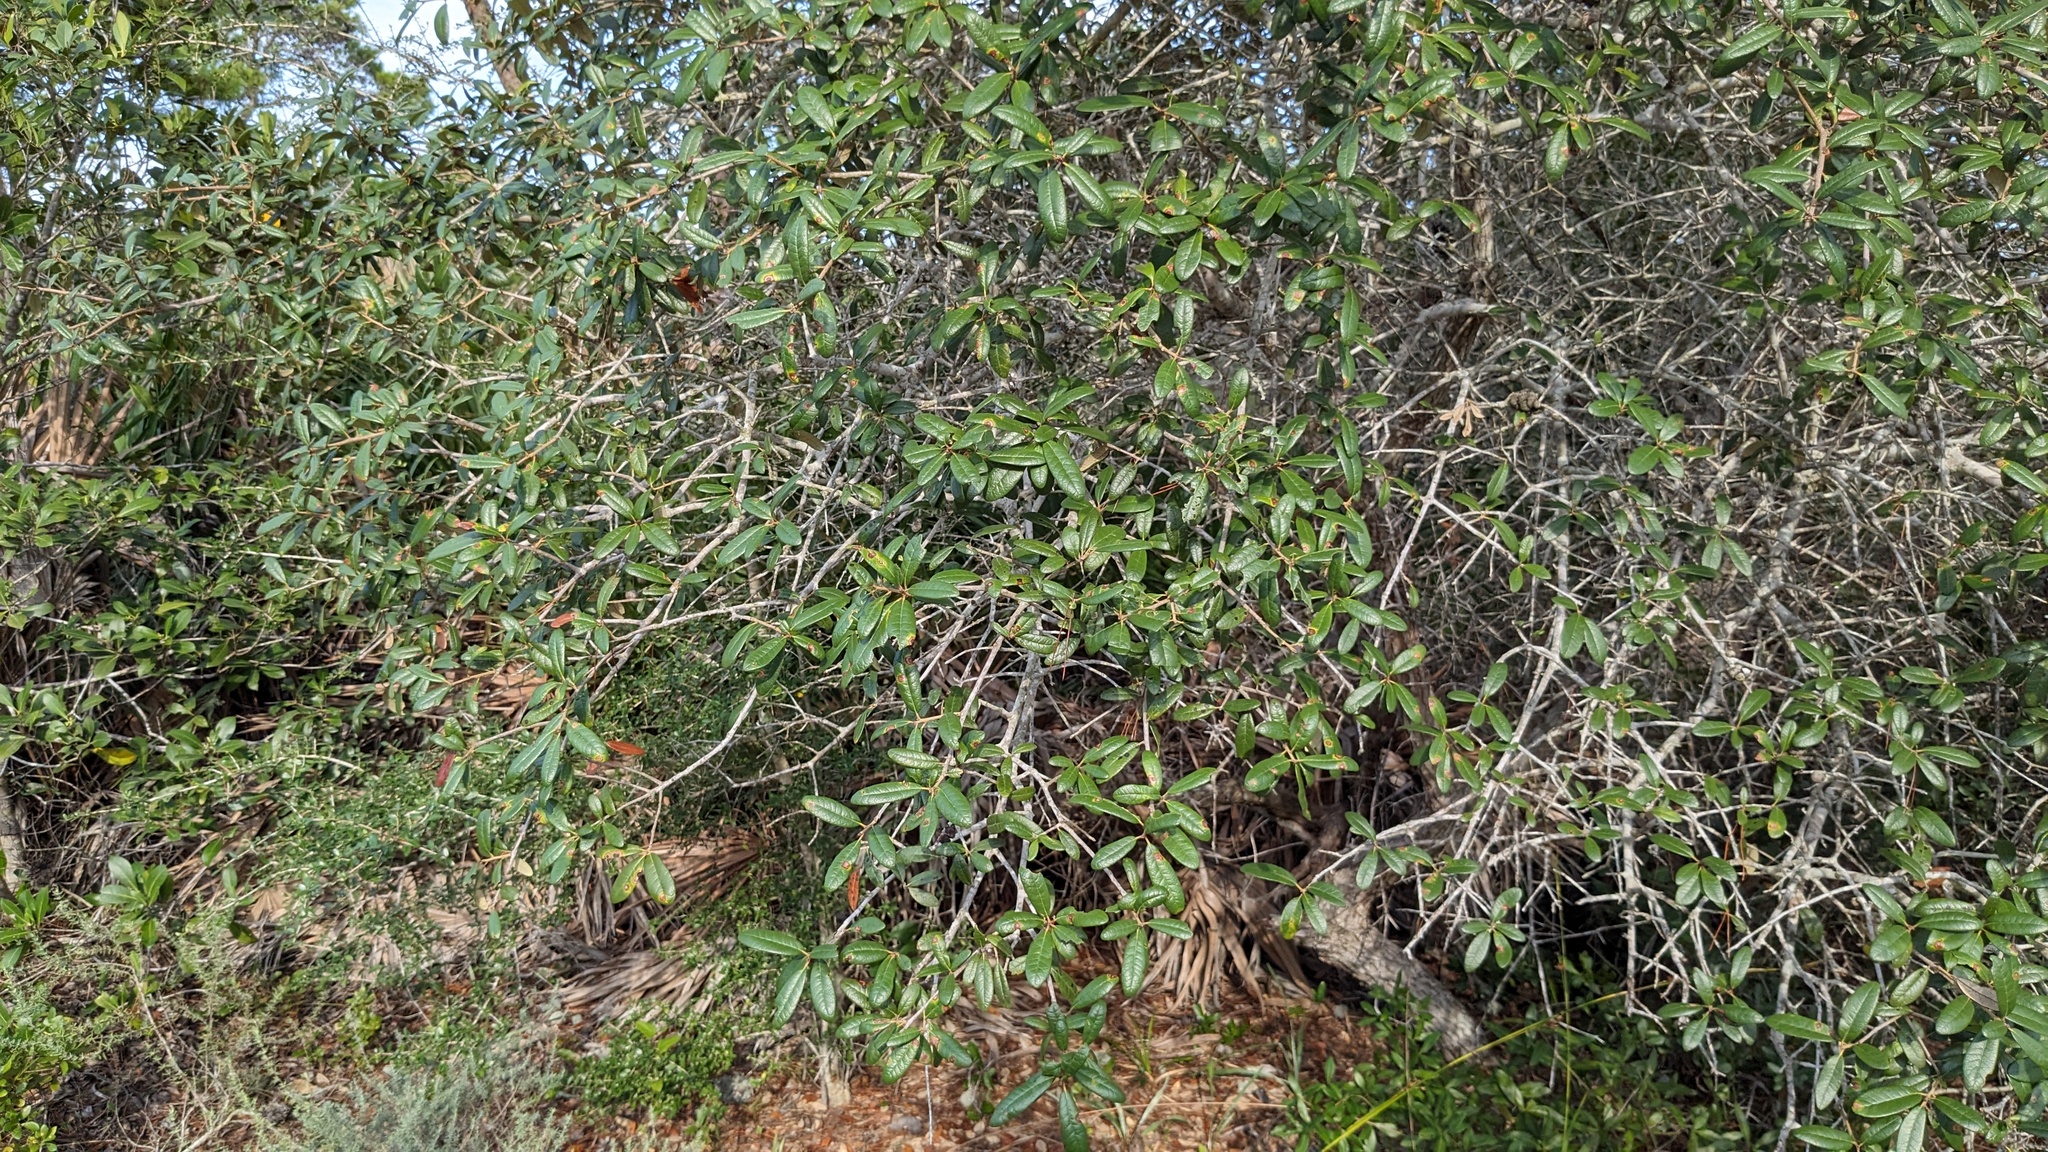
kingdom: Plantae
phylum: Tracheophyta
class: Magnoliopsida
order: Fagales
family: Fagaceae
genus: Quercus
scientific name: Quercus geminata
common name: Sand live oak
